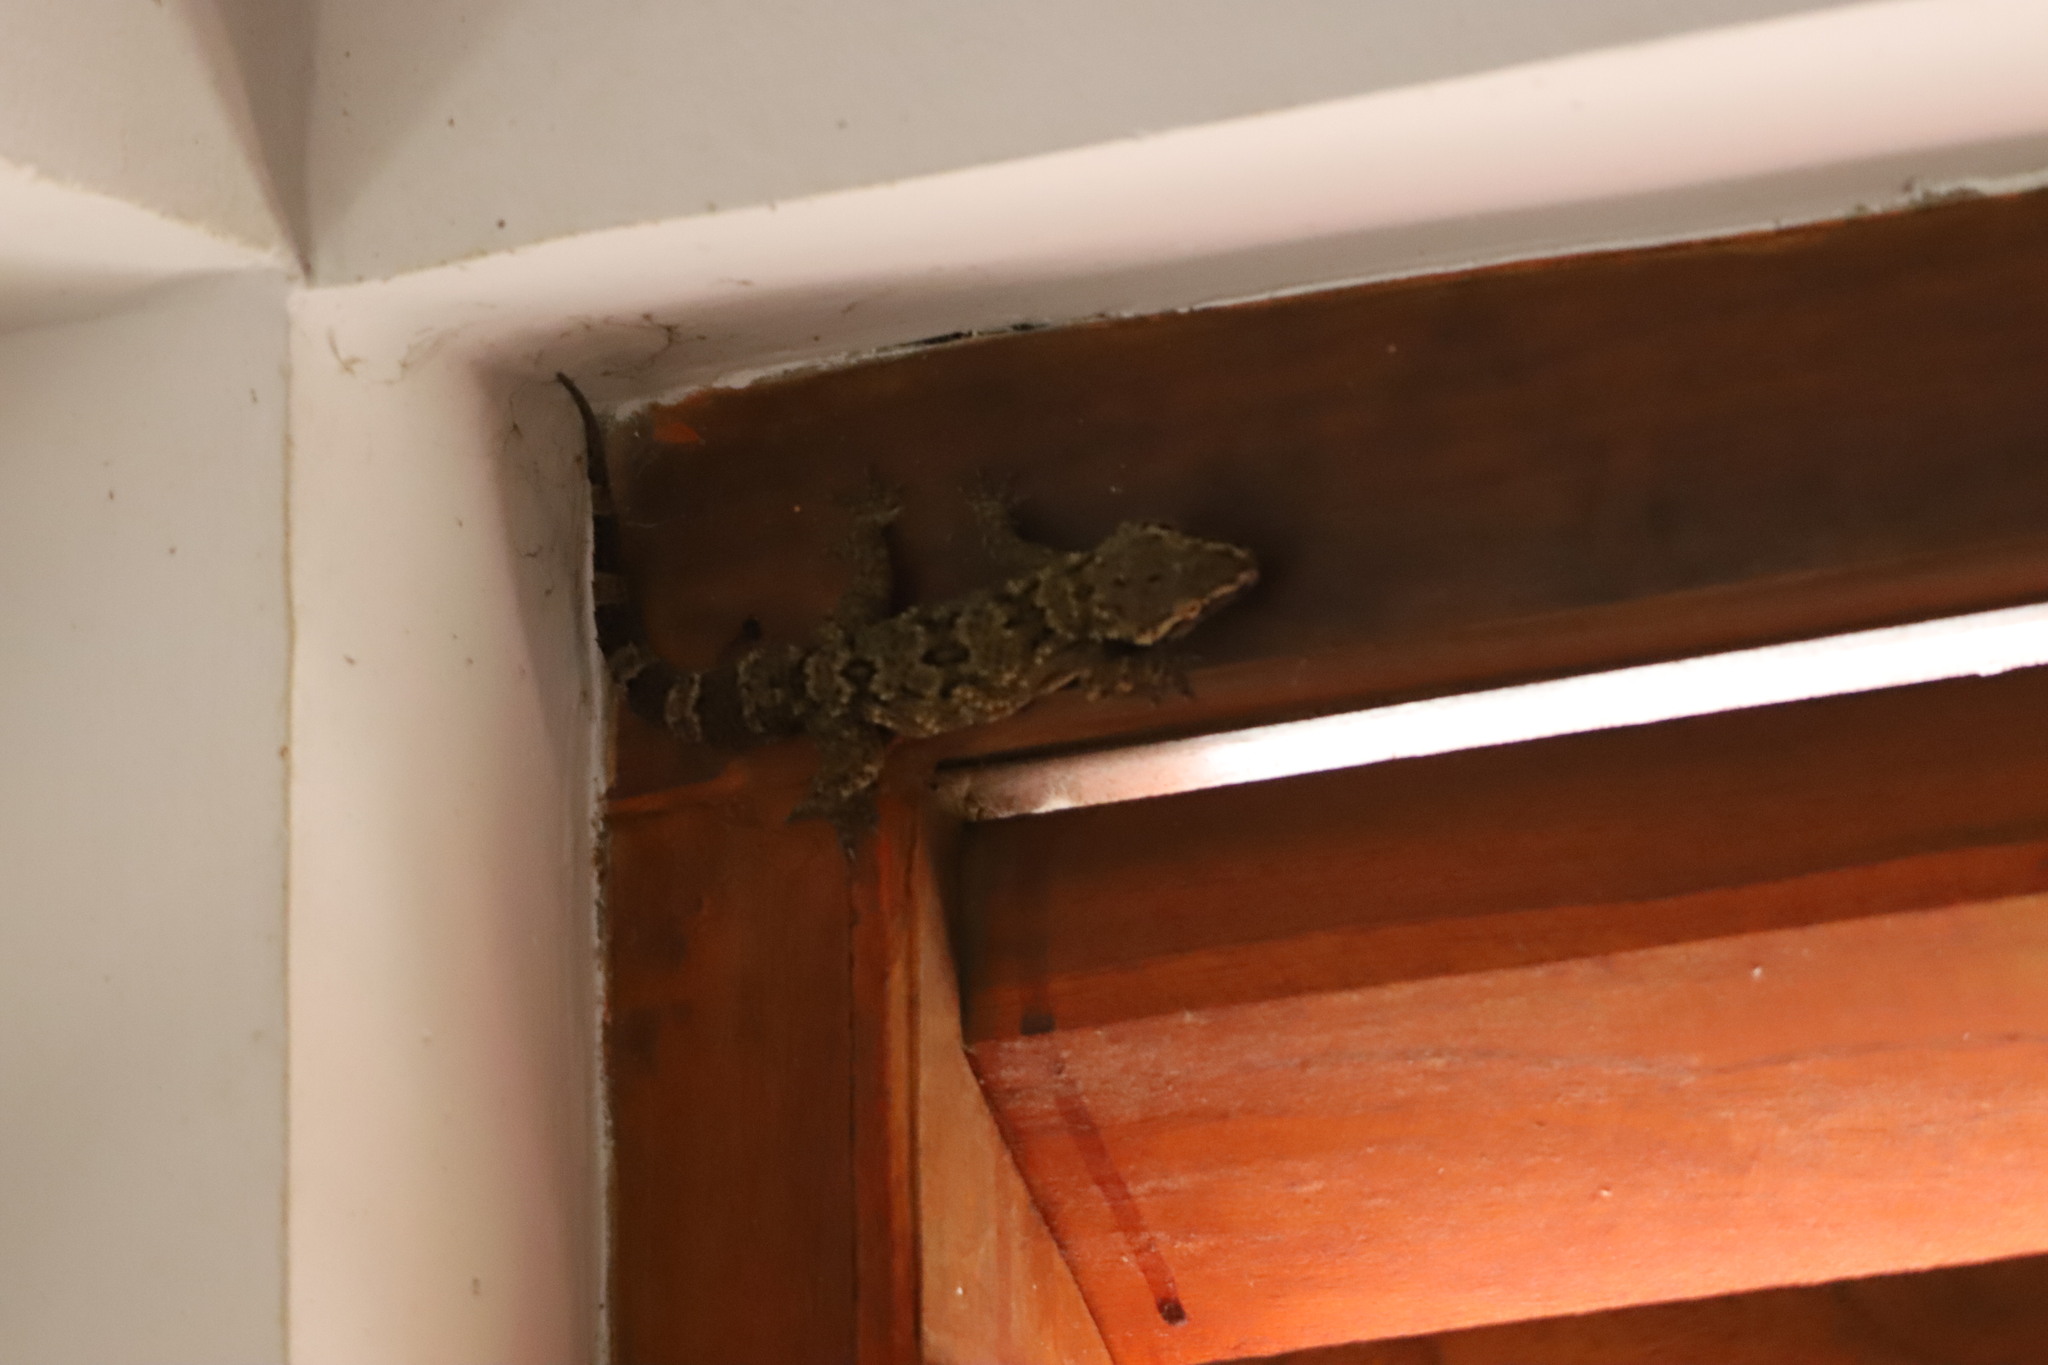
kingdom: Animalia
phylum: Chordata
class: Squamata
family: Gekkonidae
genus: Hemidactylus
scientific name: Hemidactylus depressus
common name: Srilanka leaf-toed gecko
